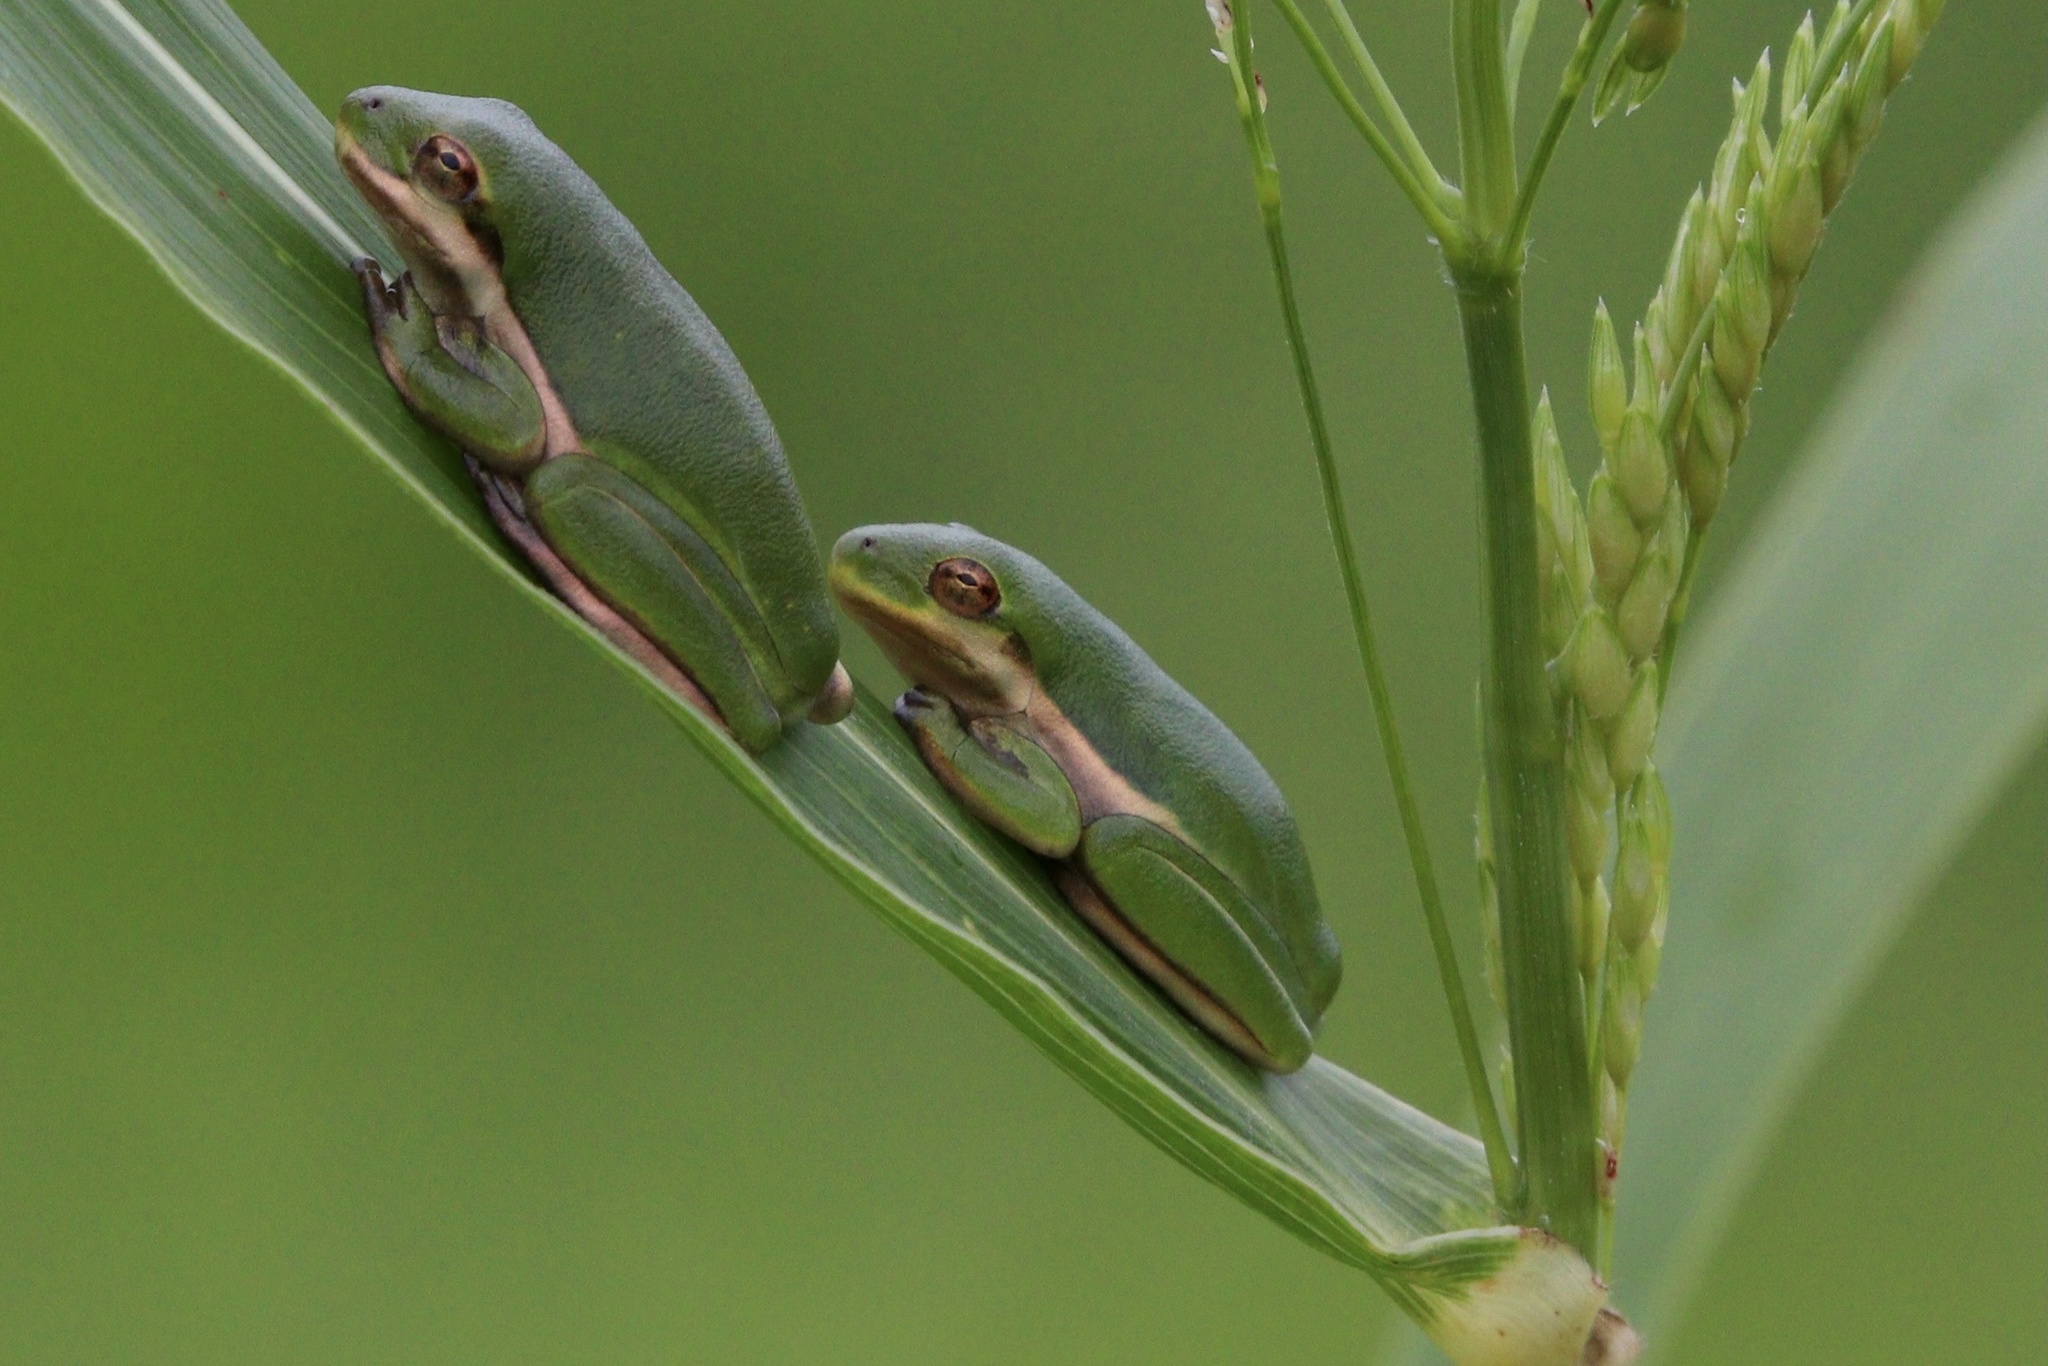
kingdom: Animalia
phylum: Chordata
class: Amphibia
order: Anura
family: Hylidae
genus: Dryophytes
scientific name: Dryophytes cinereus
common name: Green treefrog
